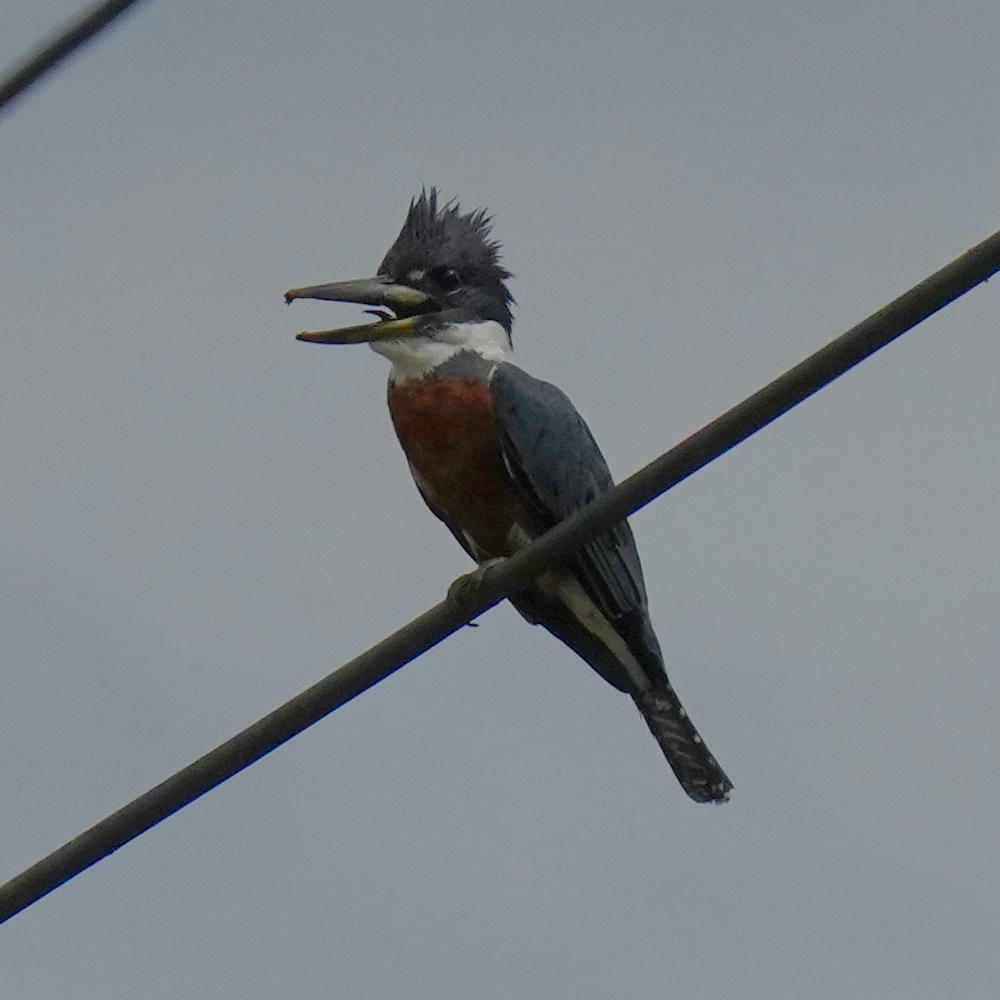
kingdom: Animalia
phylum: Chordata
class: Aves
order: Coraciiformes
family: Alcedinidae
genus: Megaceryle
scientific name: Megaceryle torquata
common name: Ringed kingfisher
